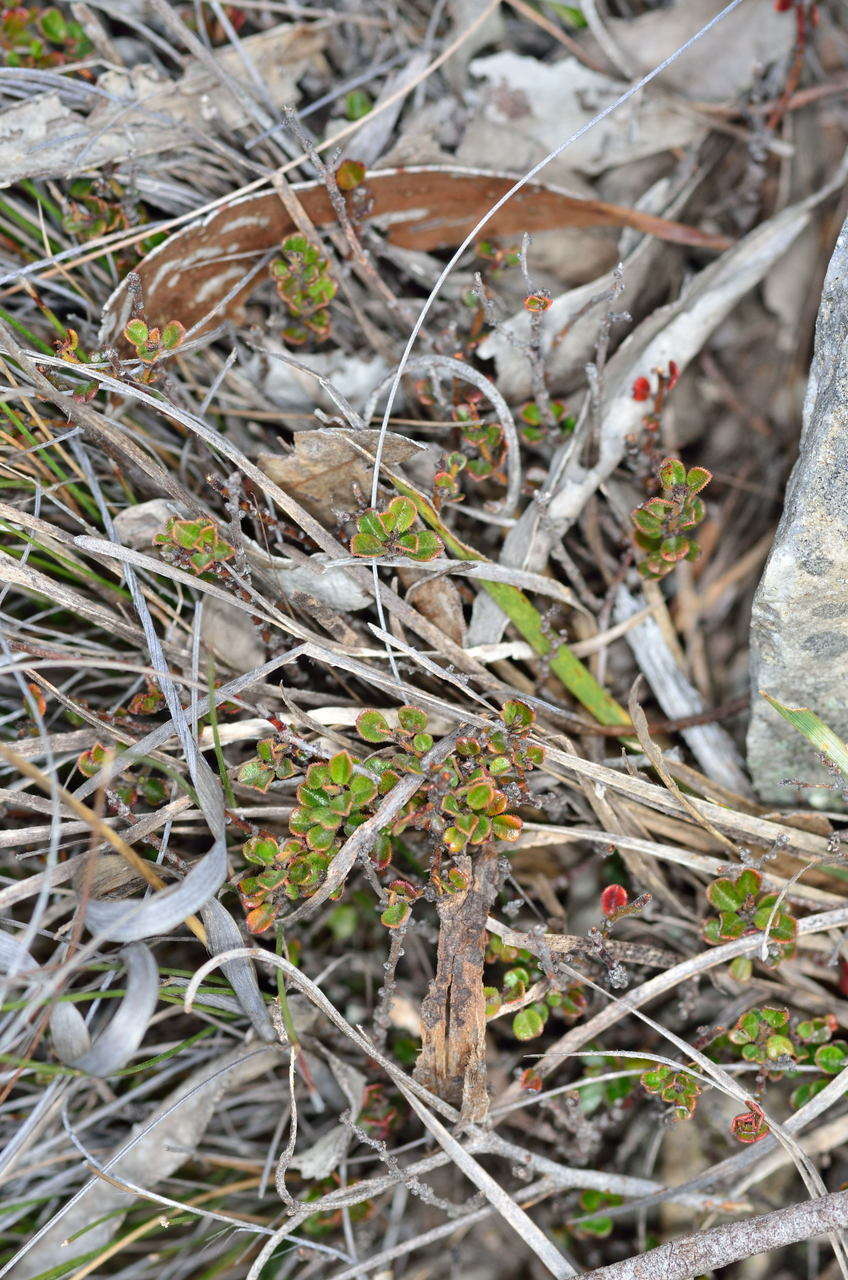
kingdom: Plantae
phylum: Tracheophyta
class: Magnoliopsida
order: Malpighiales
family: Phyllanthaceae
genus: Phyllanthus
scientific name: Phyllanthus hirtellus
